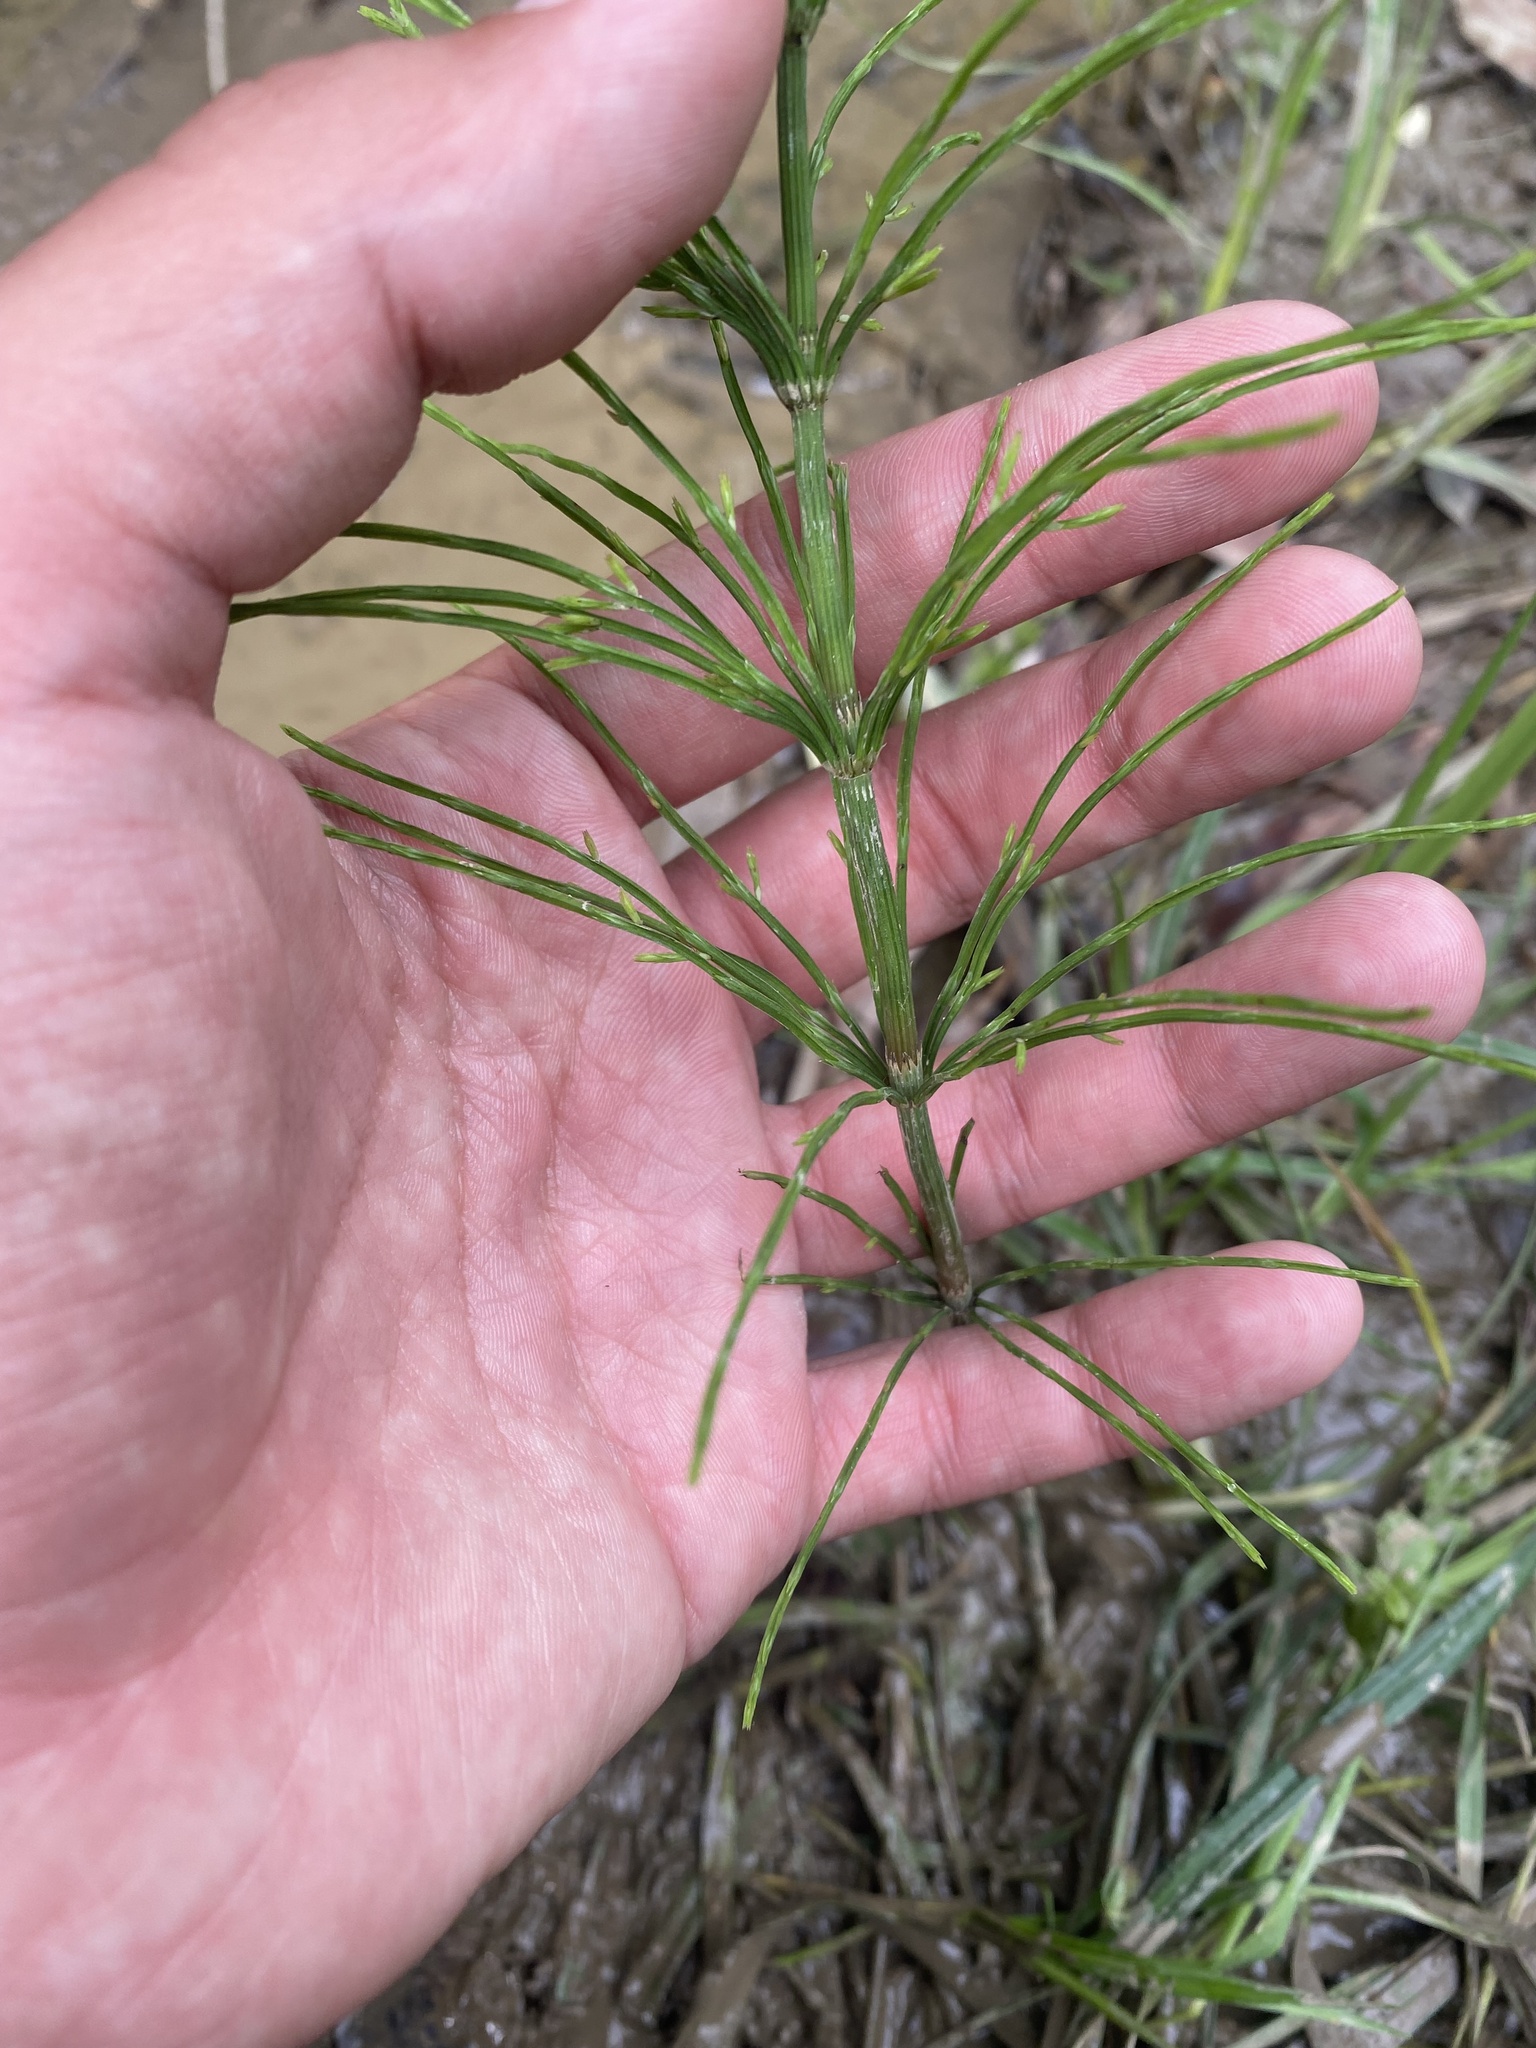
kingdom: Plantae
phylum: Tracheophyta
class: Polypodiopsida
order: Equisetales
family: Equisetaceae
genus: Equisetum
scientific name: Equisetum arvense
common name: Field horsetail
